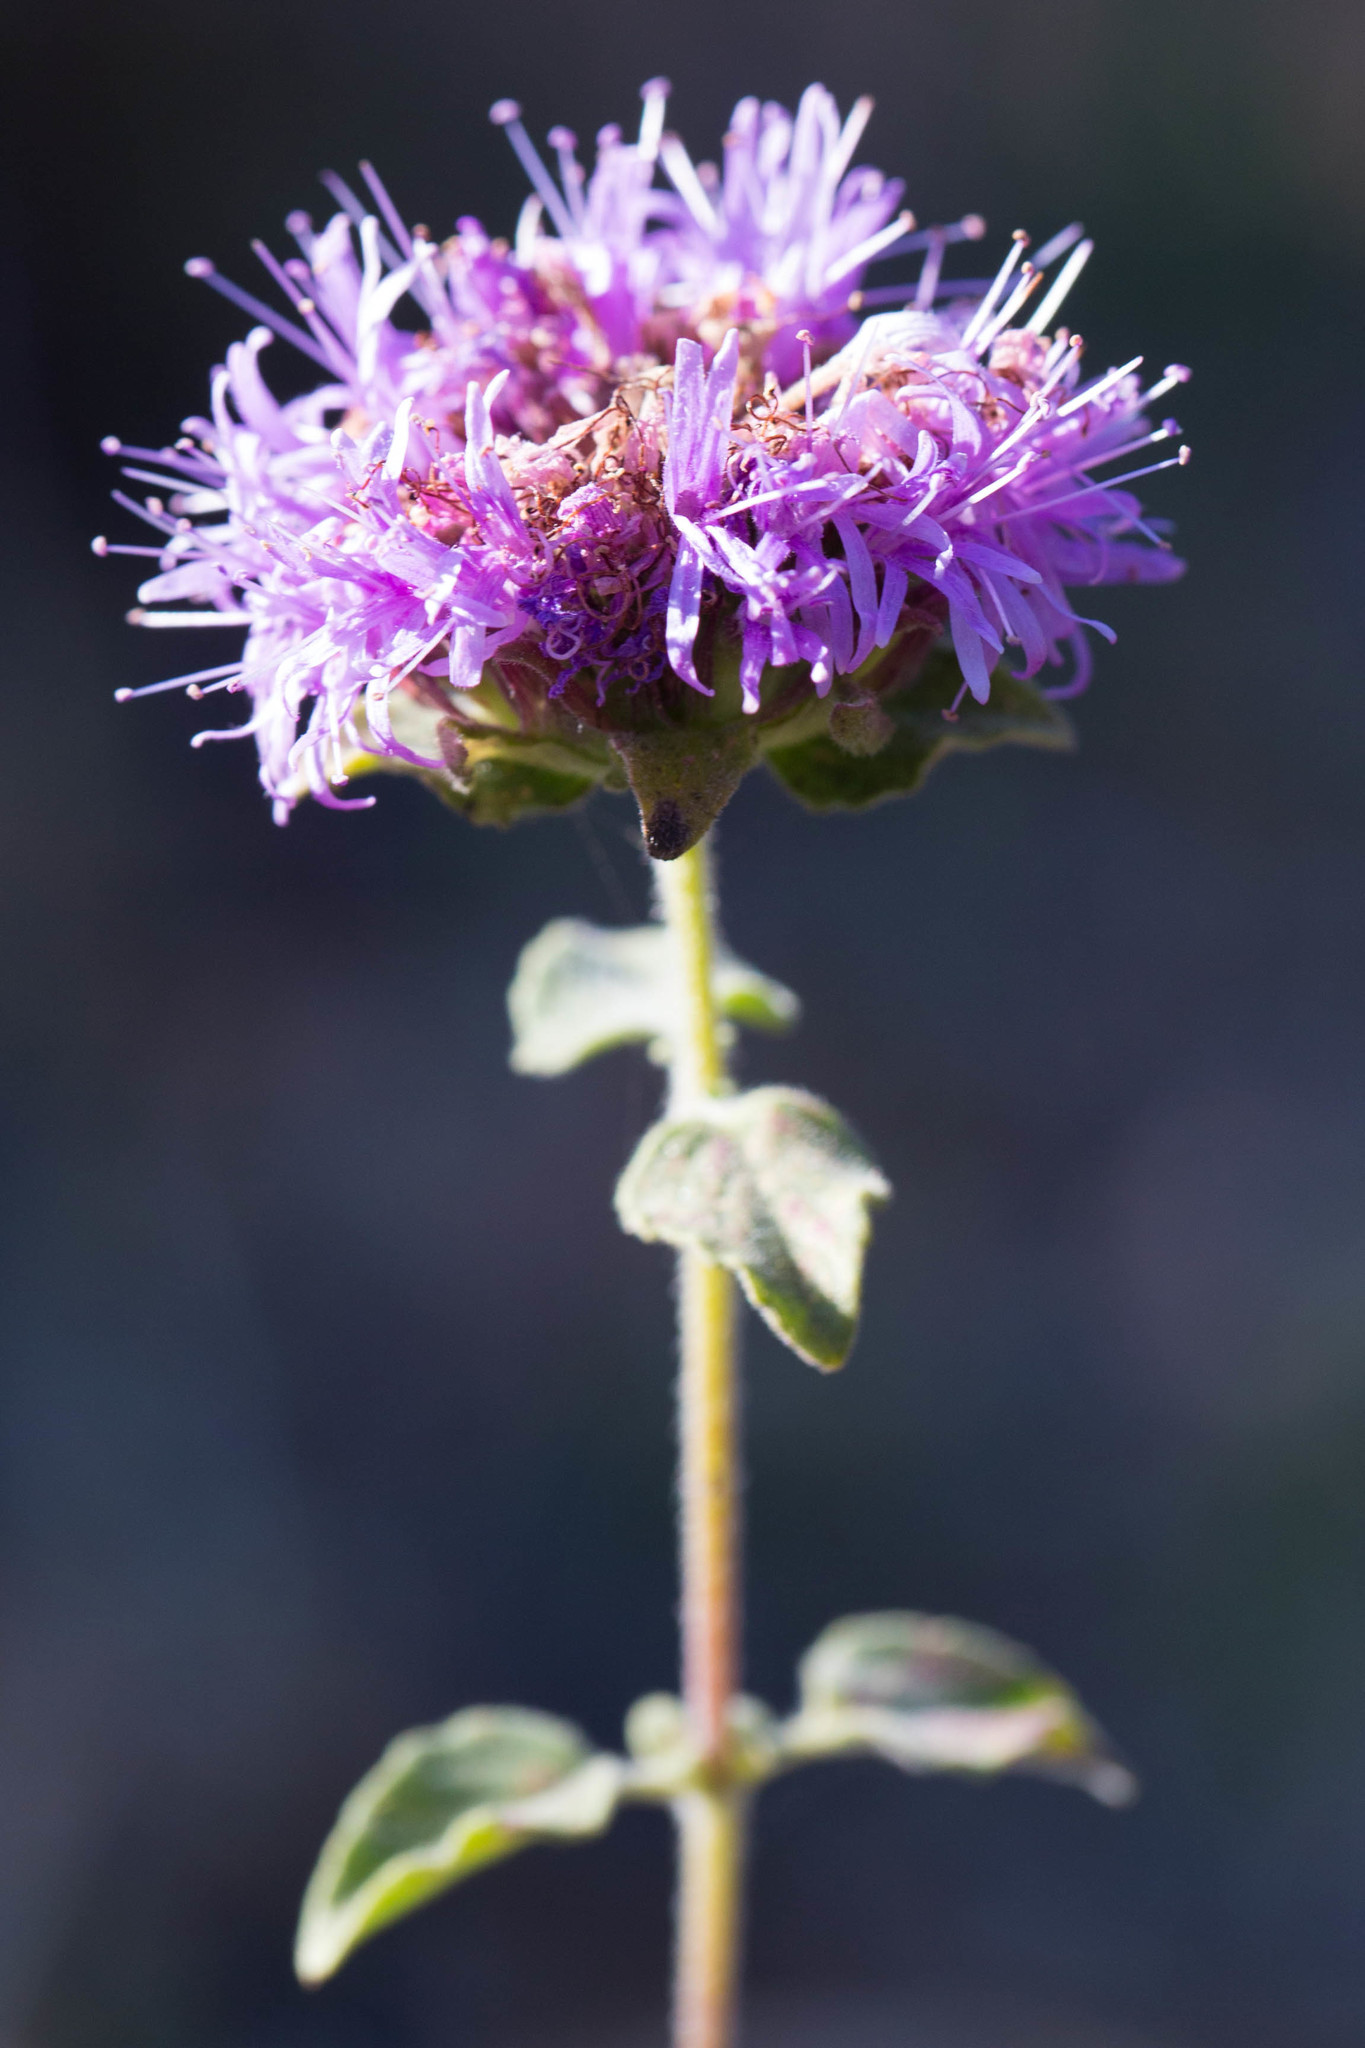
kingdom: Plantae
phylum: Tracheophyta
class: Magnoliopsida
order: Lamiales
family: Lamiaceae
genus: Monardella
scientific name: Monardella odoratissima
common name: Pacific monardella
